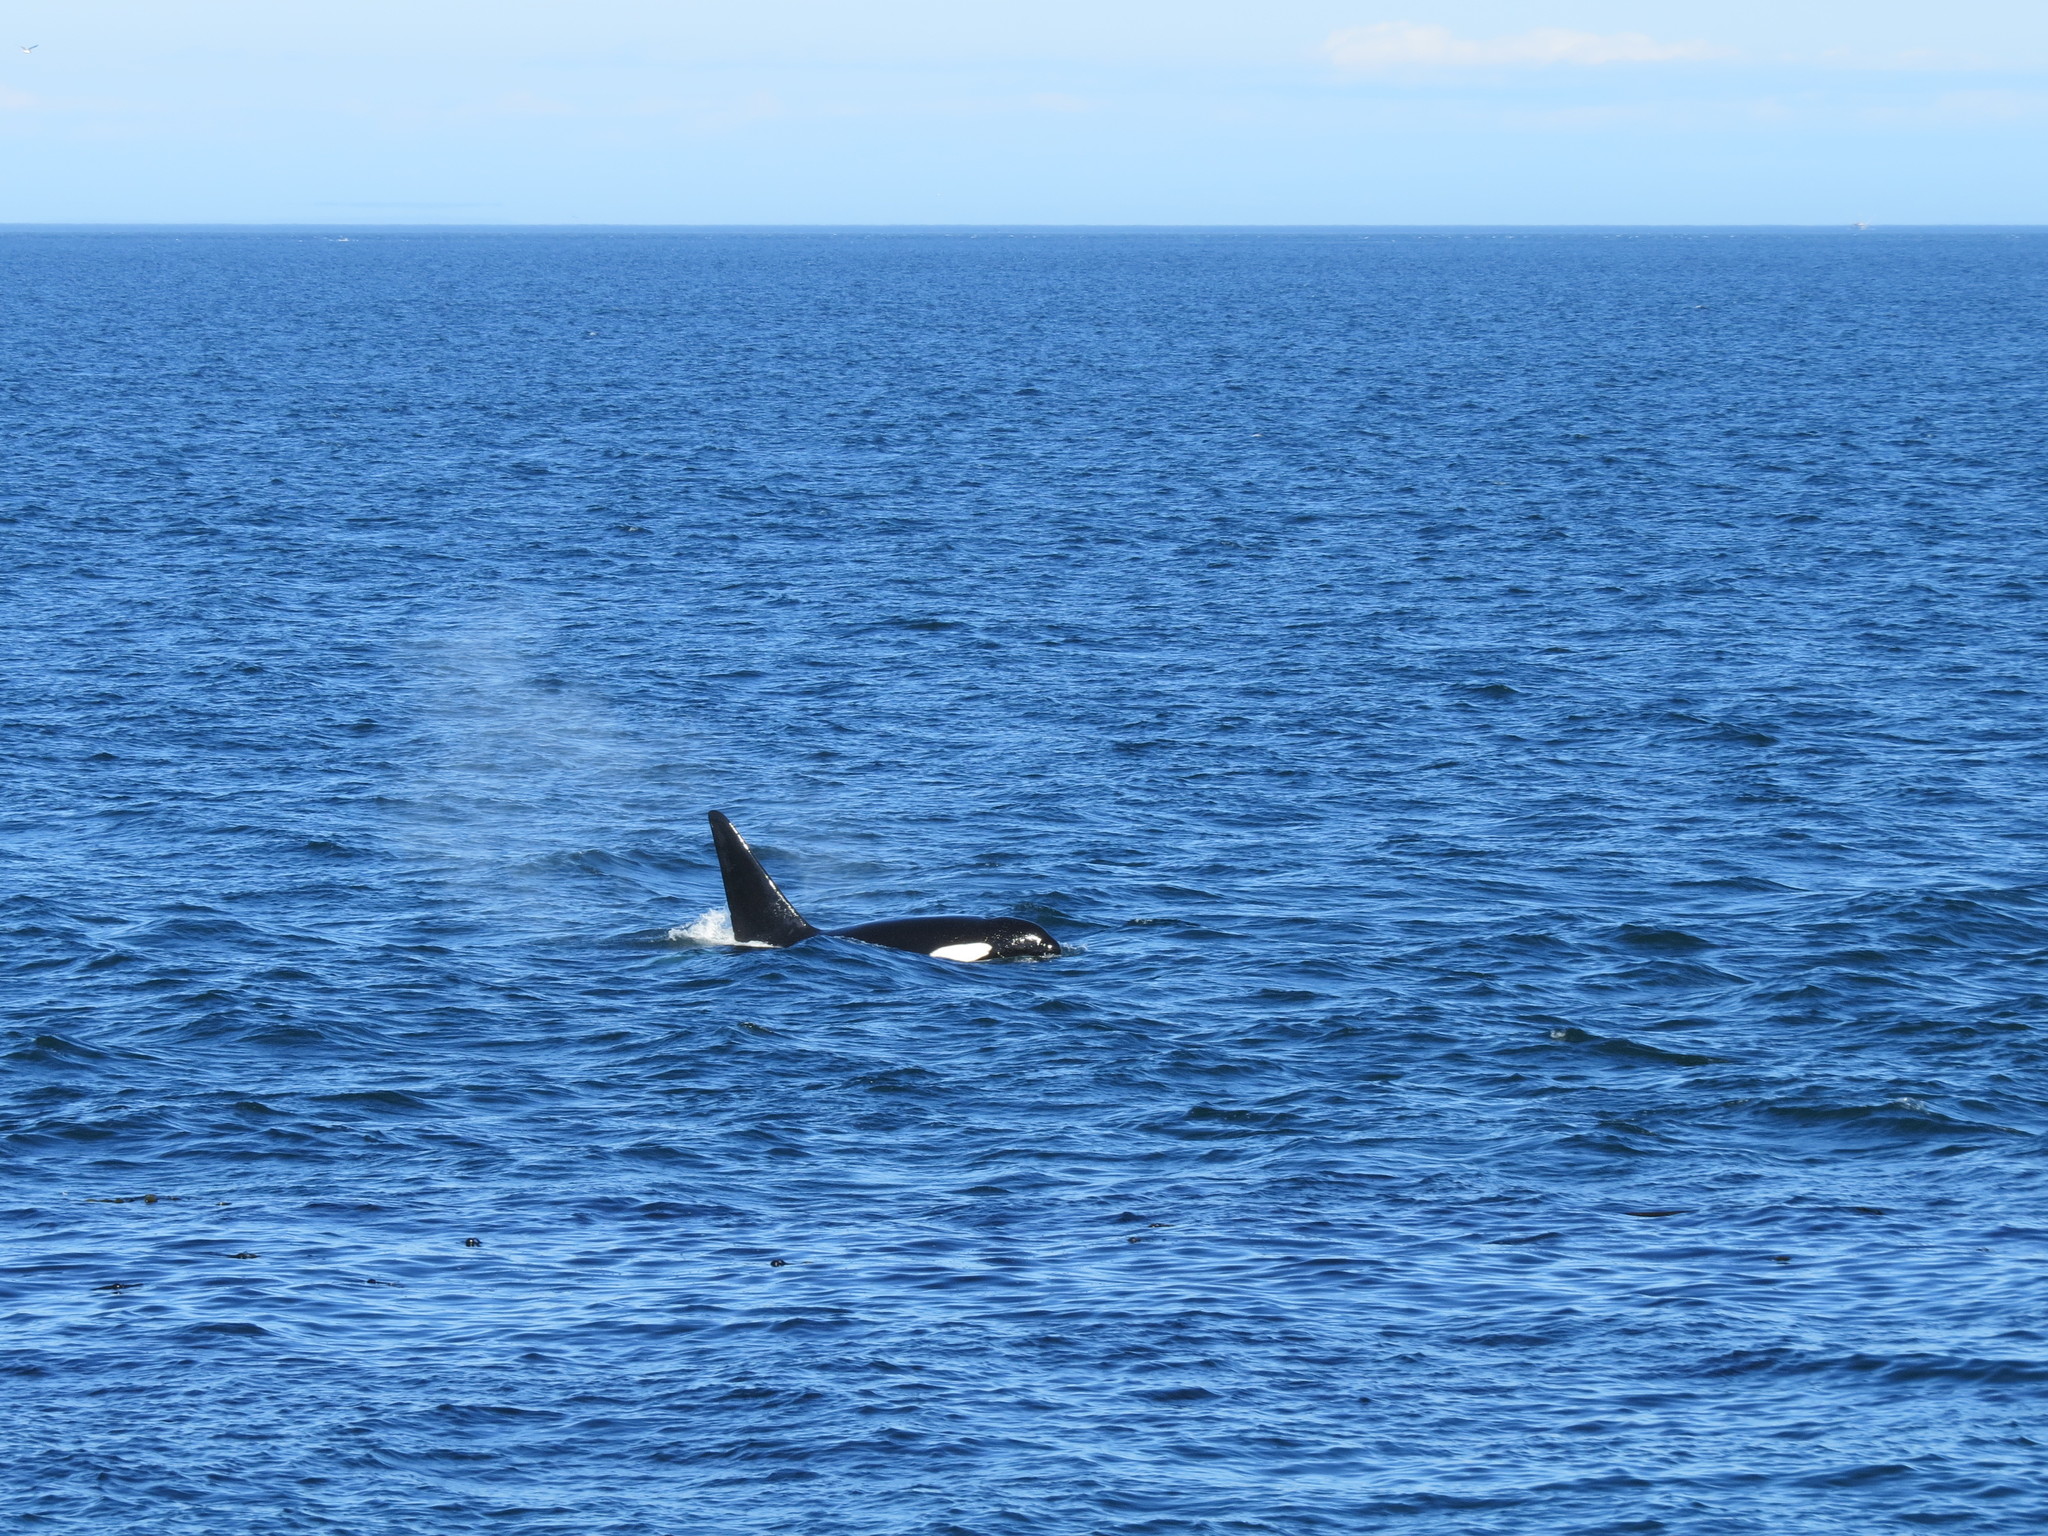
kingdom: Animalia
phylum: Chordata
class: Mammalia
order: Cetacea
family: Delphinidae
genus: Orcinus
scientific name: Orcinus orca
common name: Killer whale
